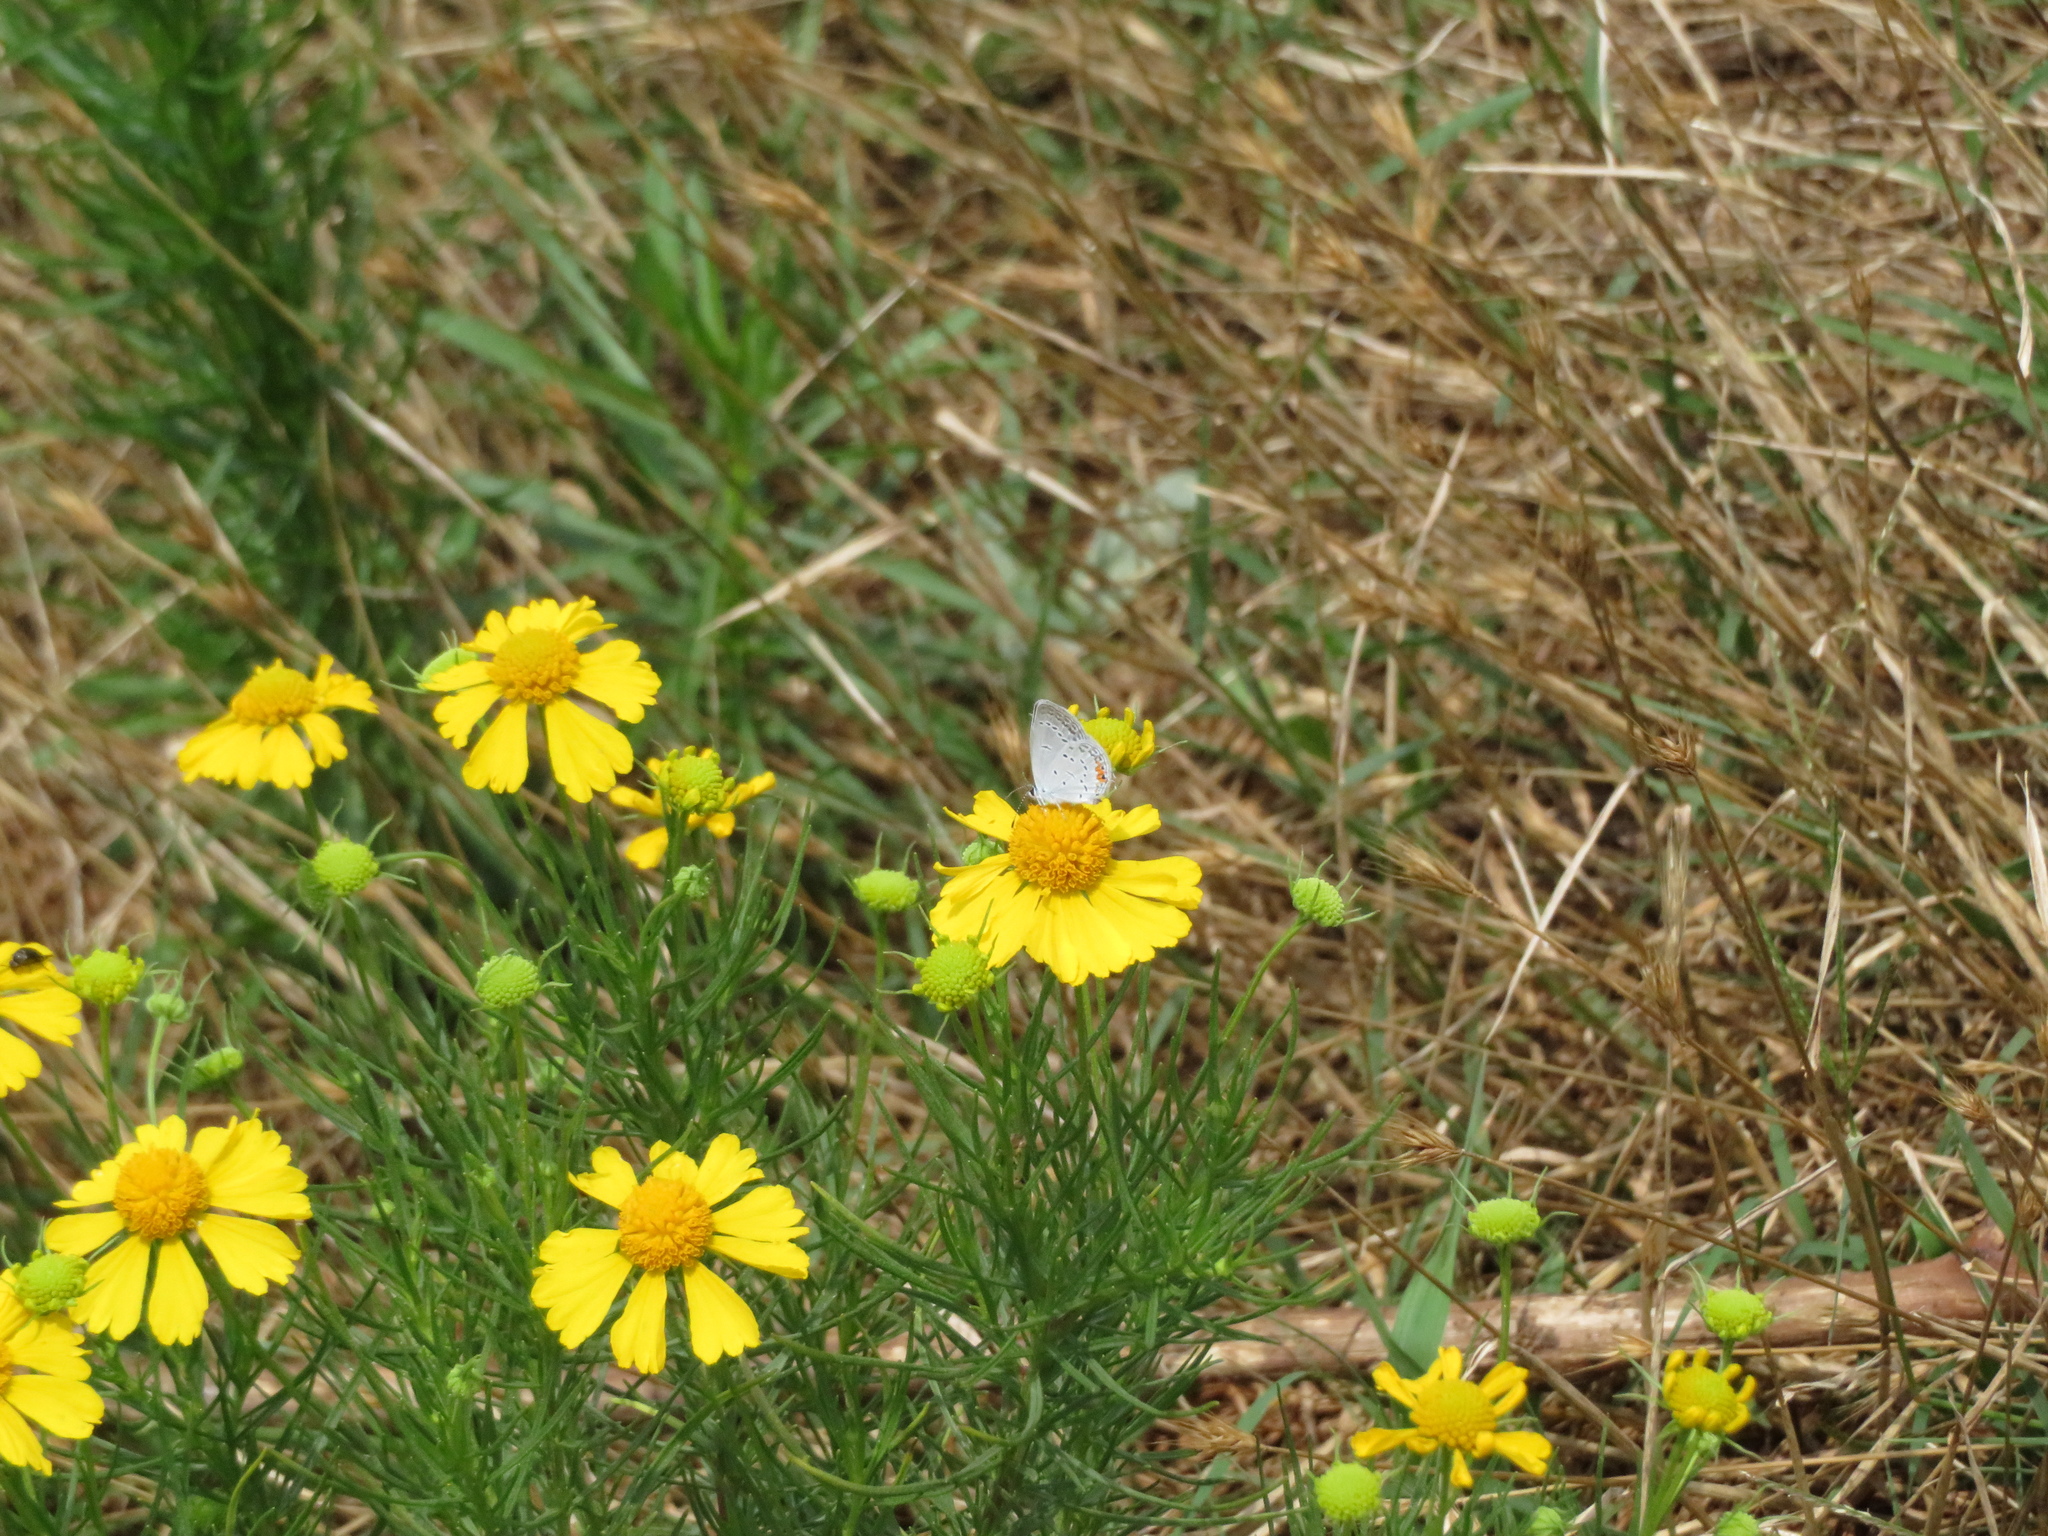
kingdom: Animalia
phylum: Arthropoda
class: Insecta
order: Lepidoptera
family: Lycaenidae
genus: Elkalyce
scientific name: Elkalyce comyntas
